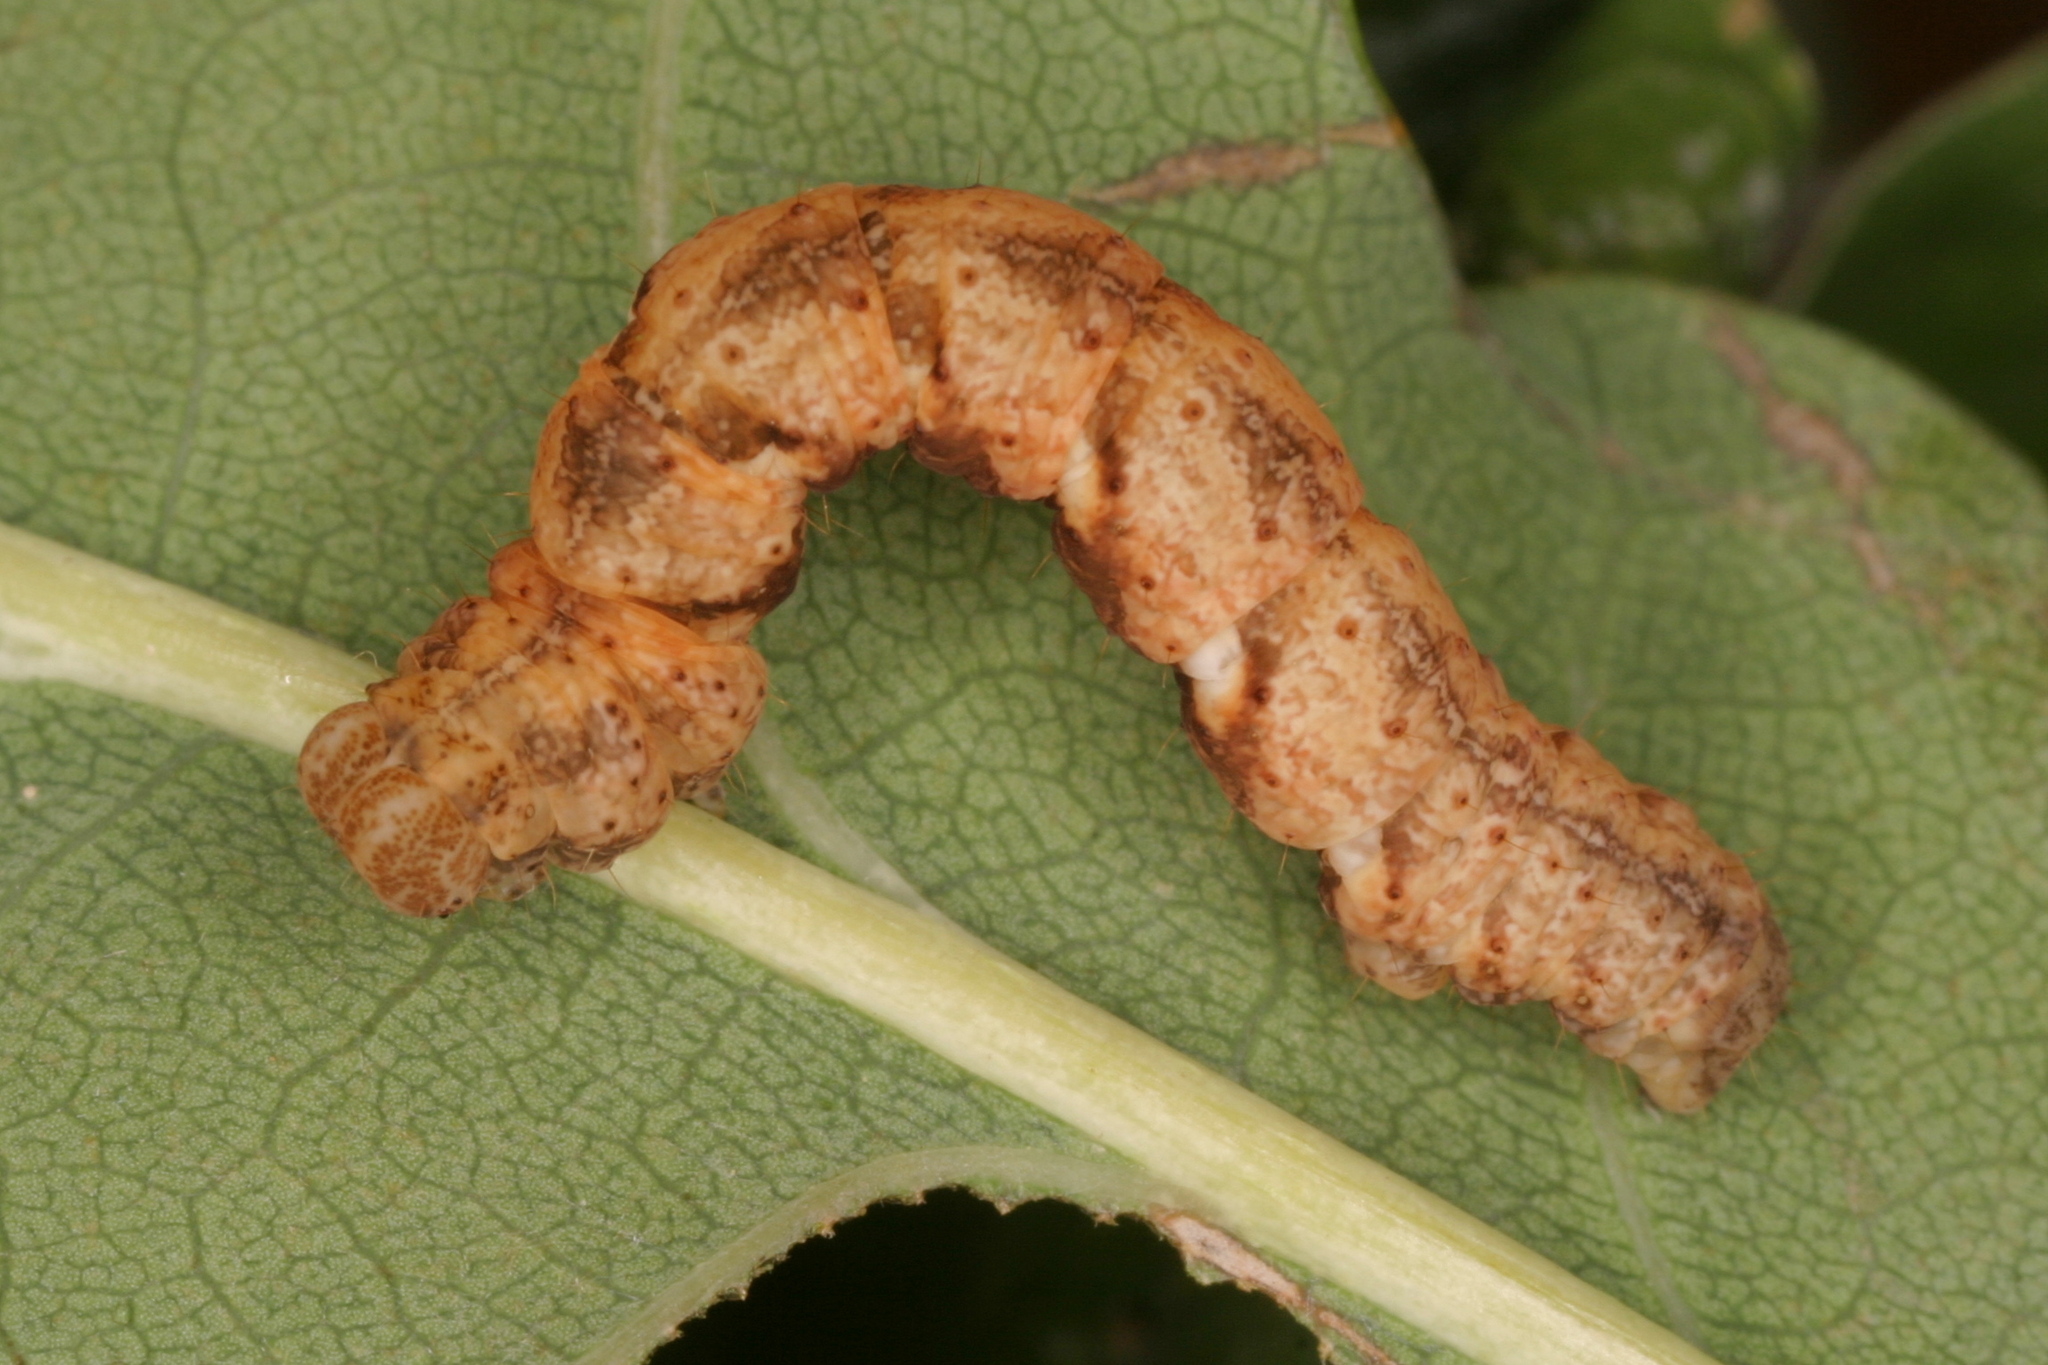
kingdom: Animalia
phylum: Arthropoda
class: Insecta
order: Lepidoptera
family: Geometridae
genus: Cyclophora
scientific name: Cyclophora punctaria
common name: Maiden's blush
